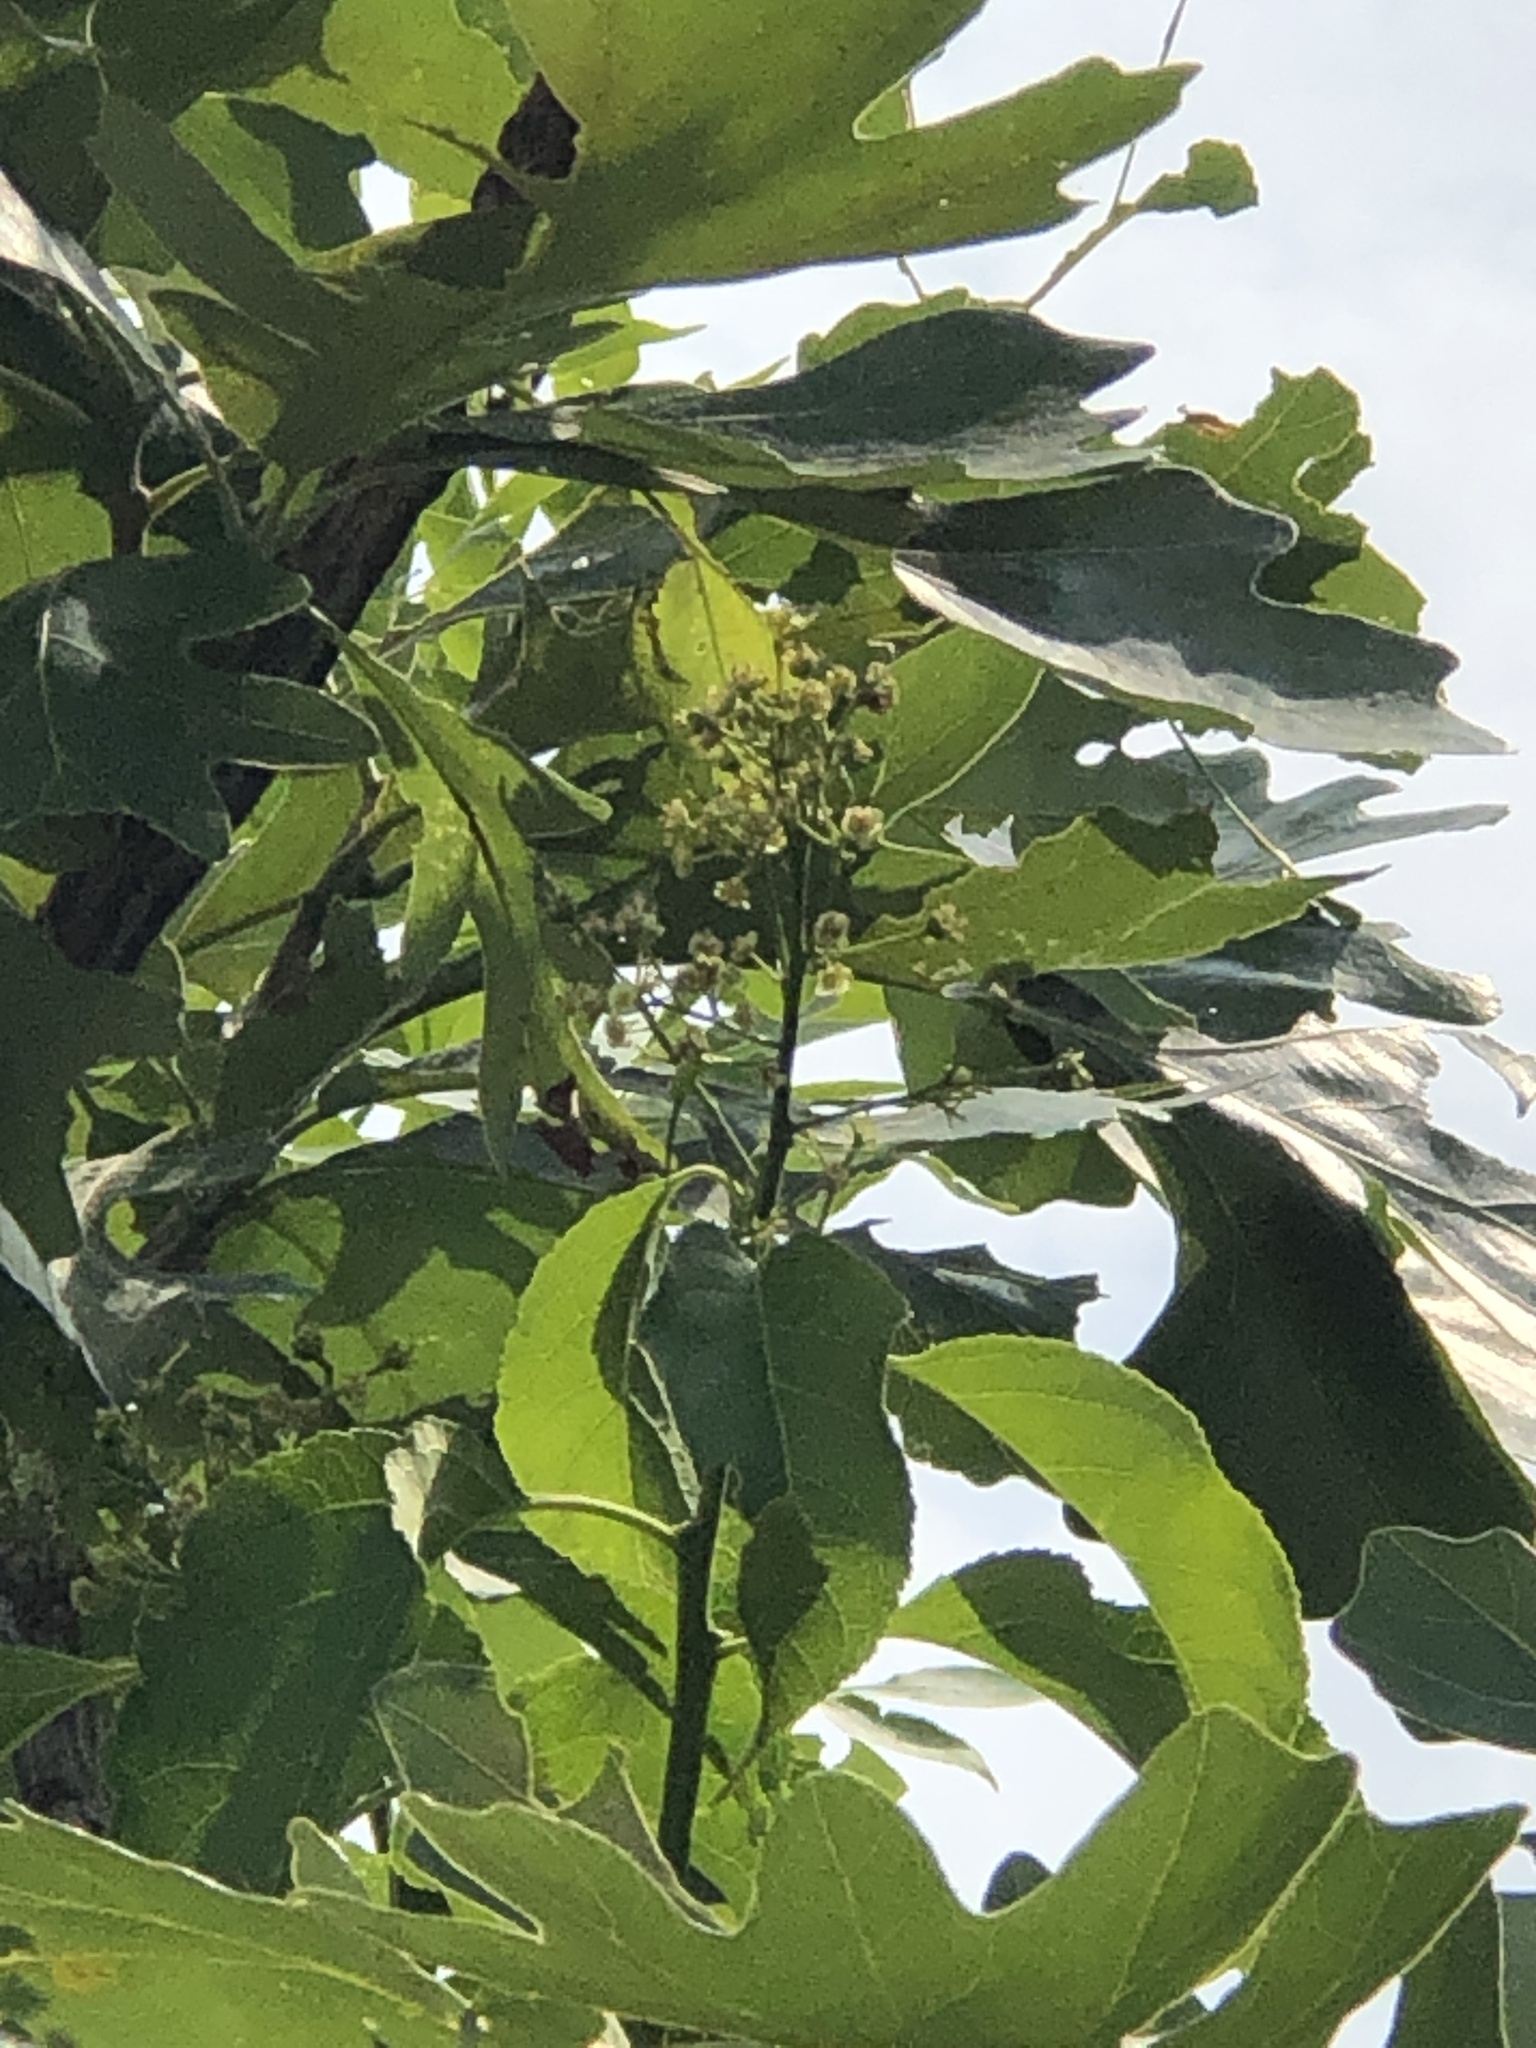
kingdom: Plantae
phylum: Tracheophyta
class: Magnoliopsida
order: Celastrales
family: Celastraceae
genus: Celastrus
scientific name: Celastrus scandens
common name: American bittersweet
